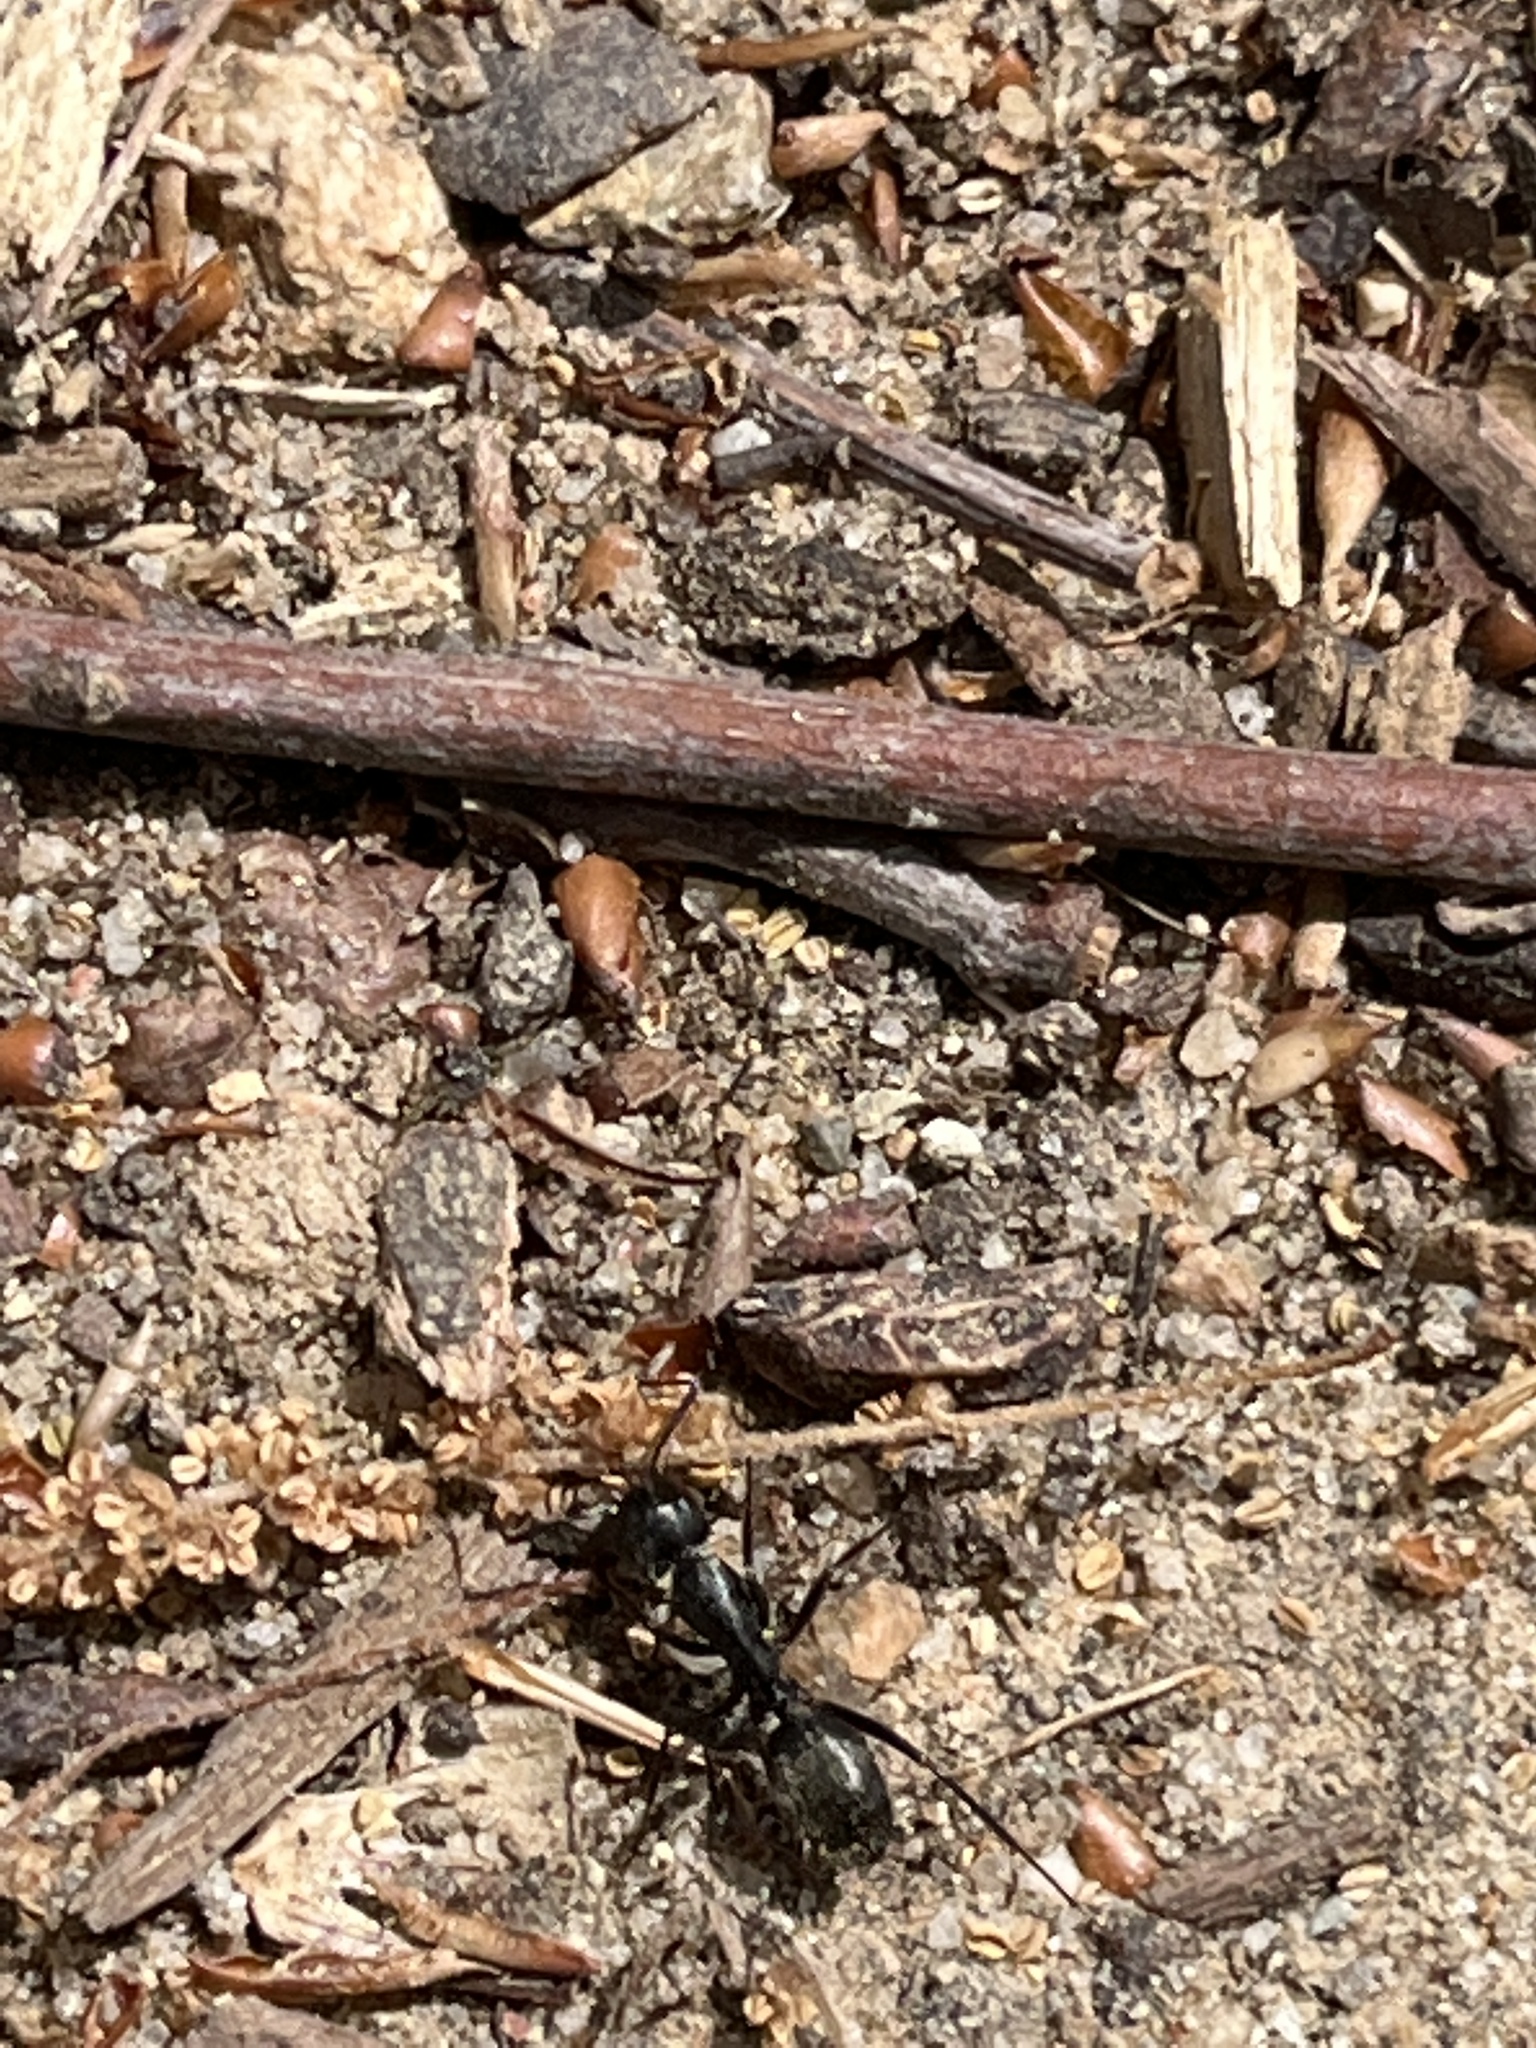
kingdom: Animalia
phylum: Arthropoda
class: Insecta
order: Hymenoptera
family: Formicidae
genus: Camponotus
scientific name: Camponotus pennsylvanicus
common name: Black carpenter ant
